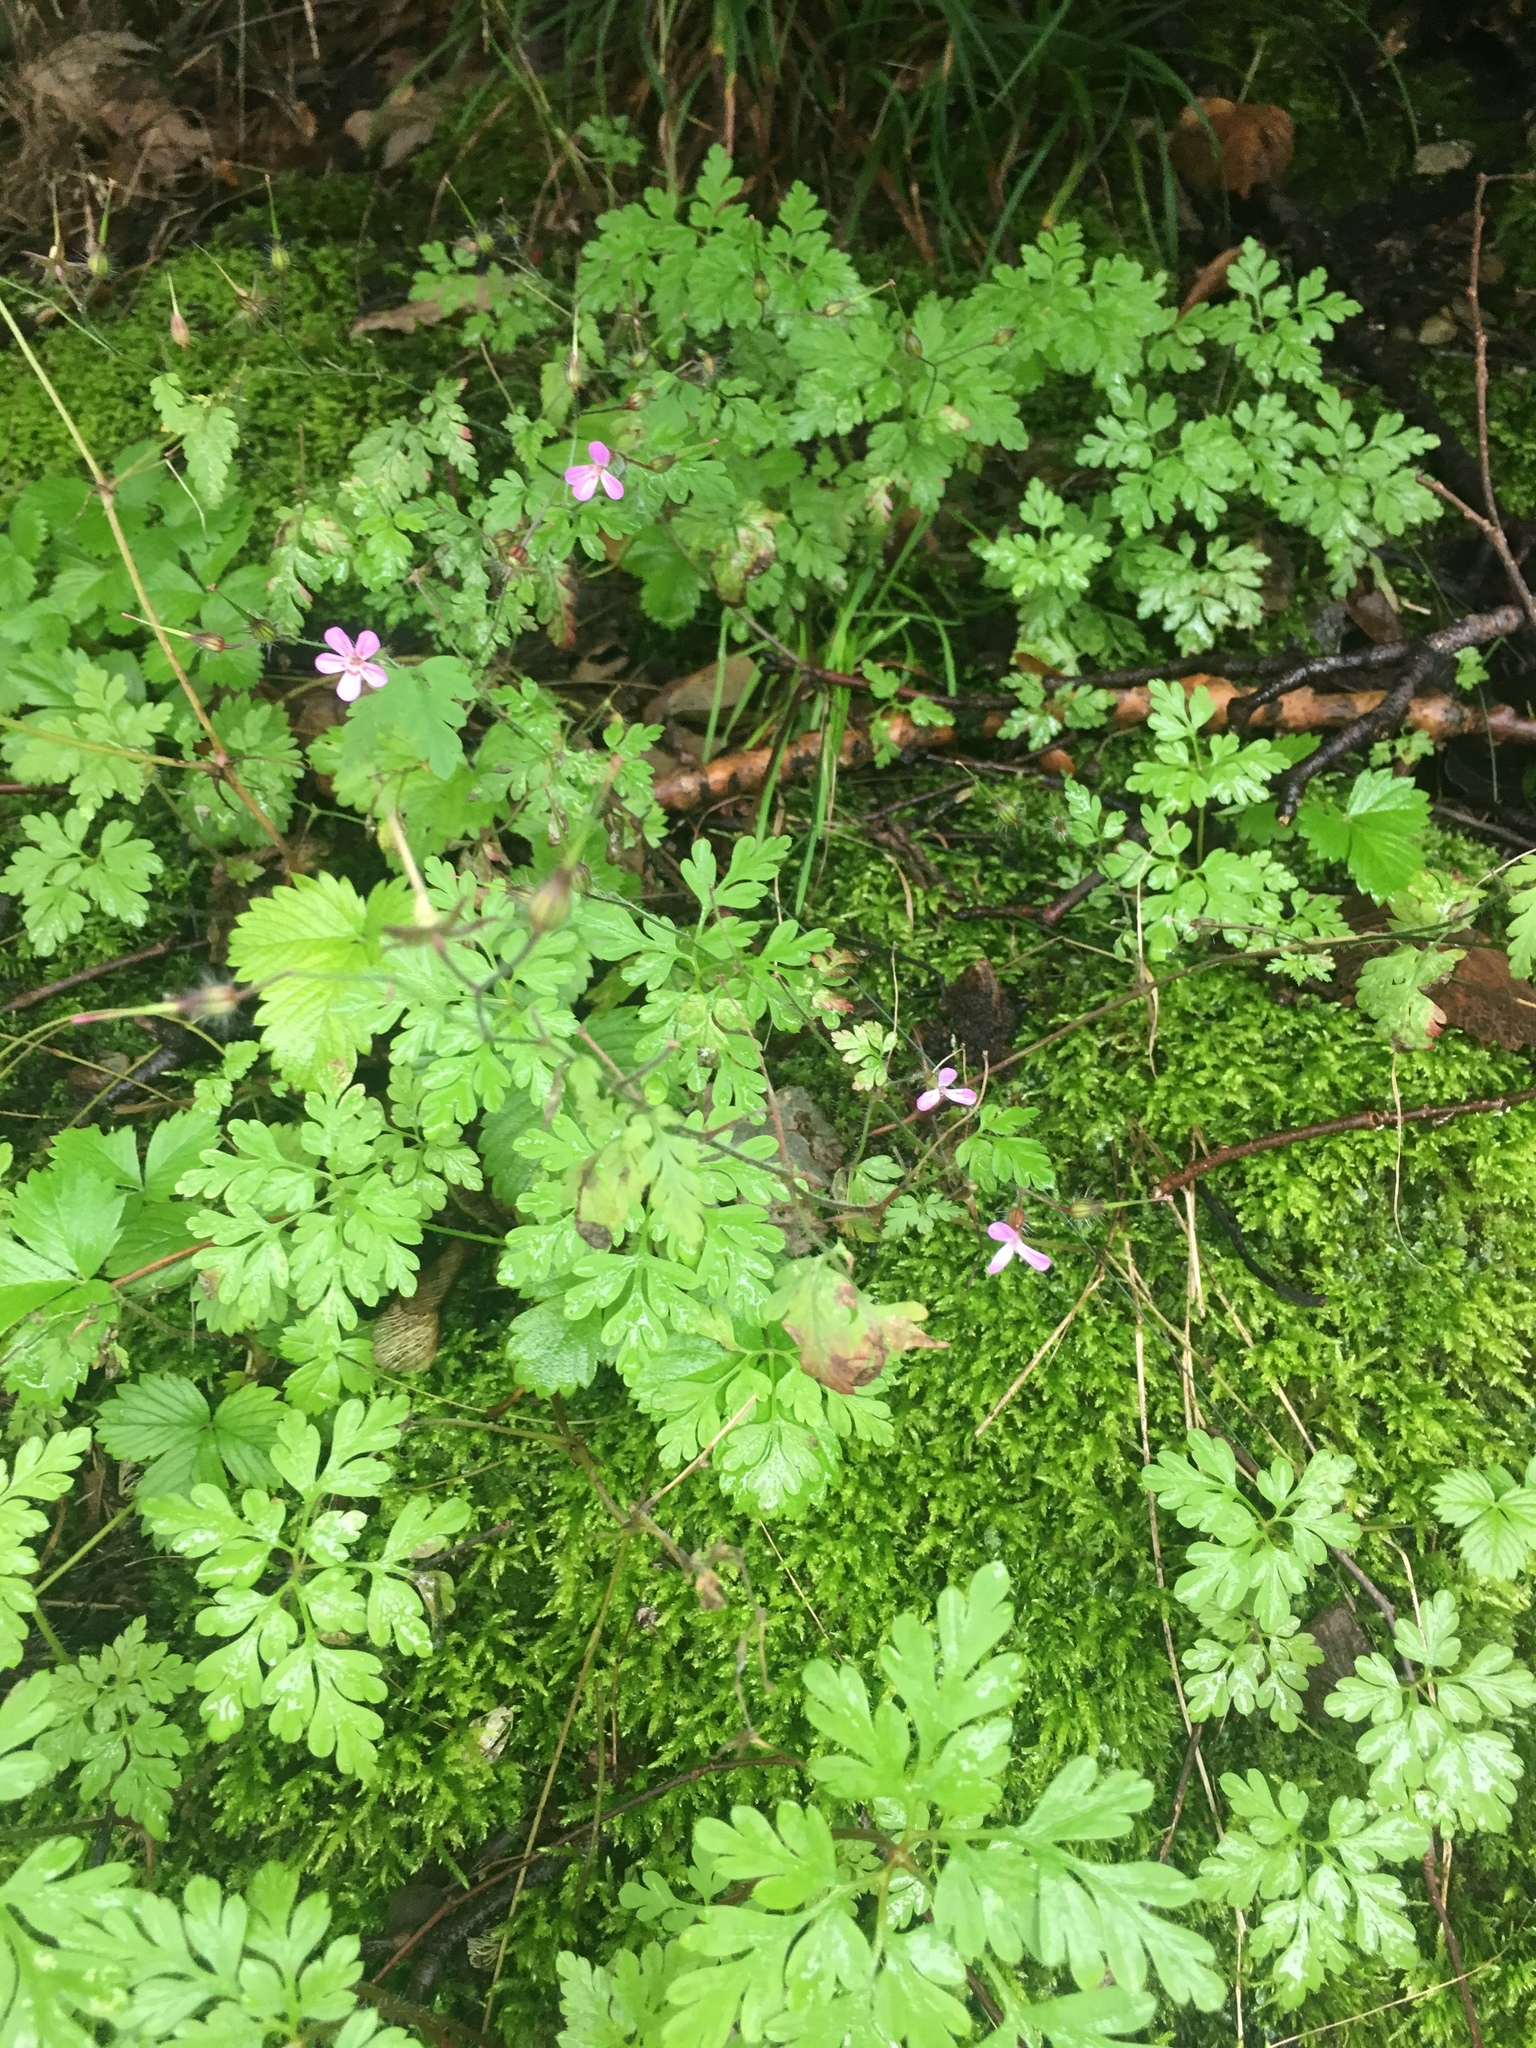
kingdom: Plantae
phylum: Tracheophyta
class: Magnoliopsida
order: Geraniales
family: Geraniaceae
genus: Geranium
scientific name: Geranium robertianum
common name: Herb-robert
